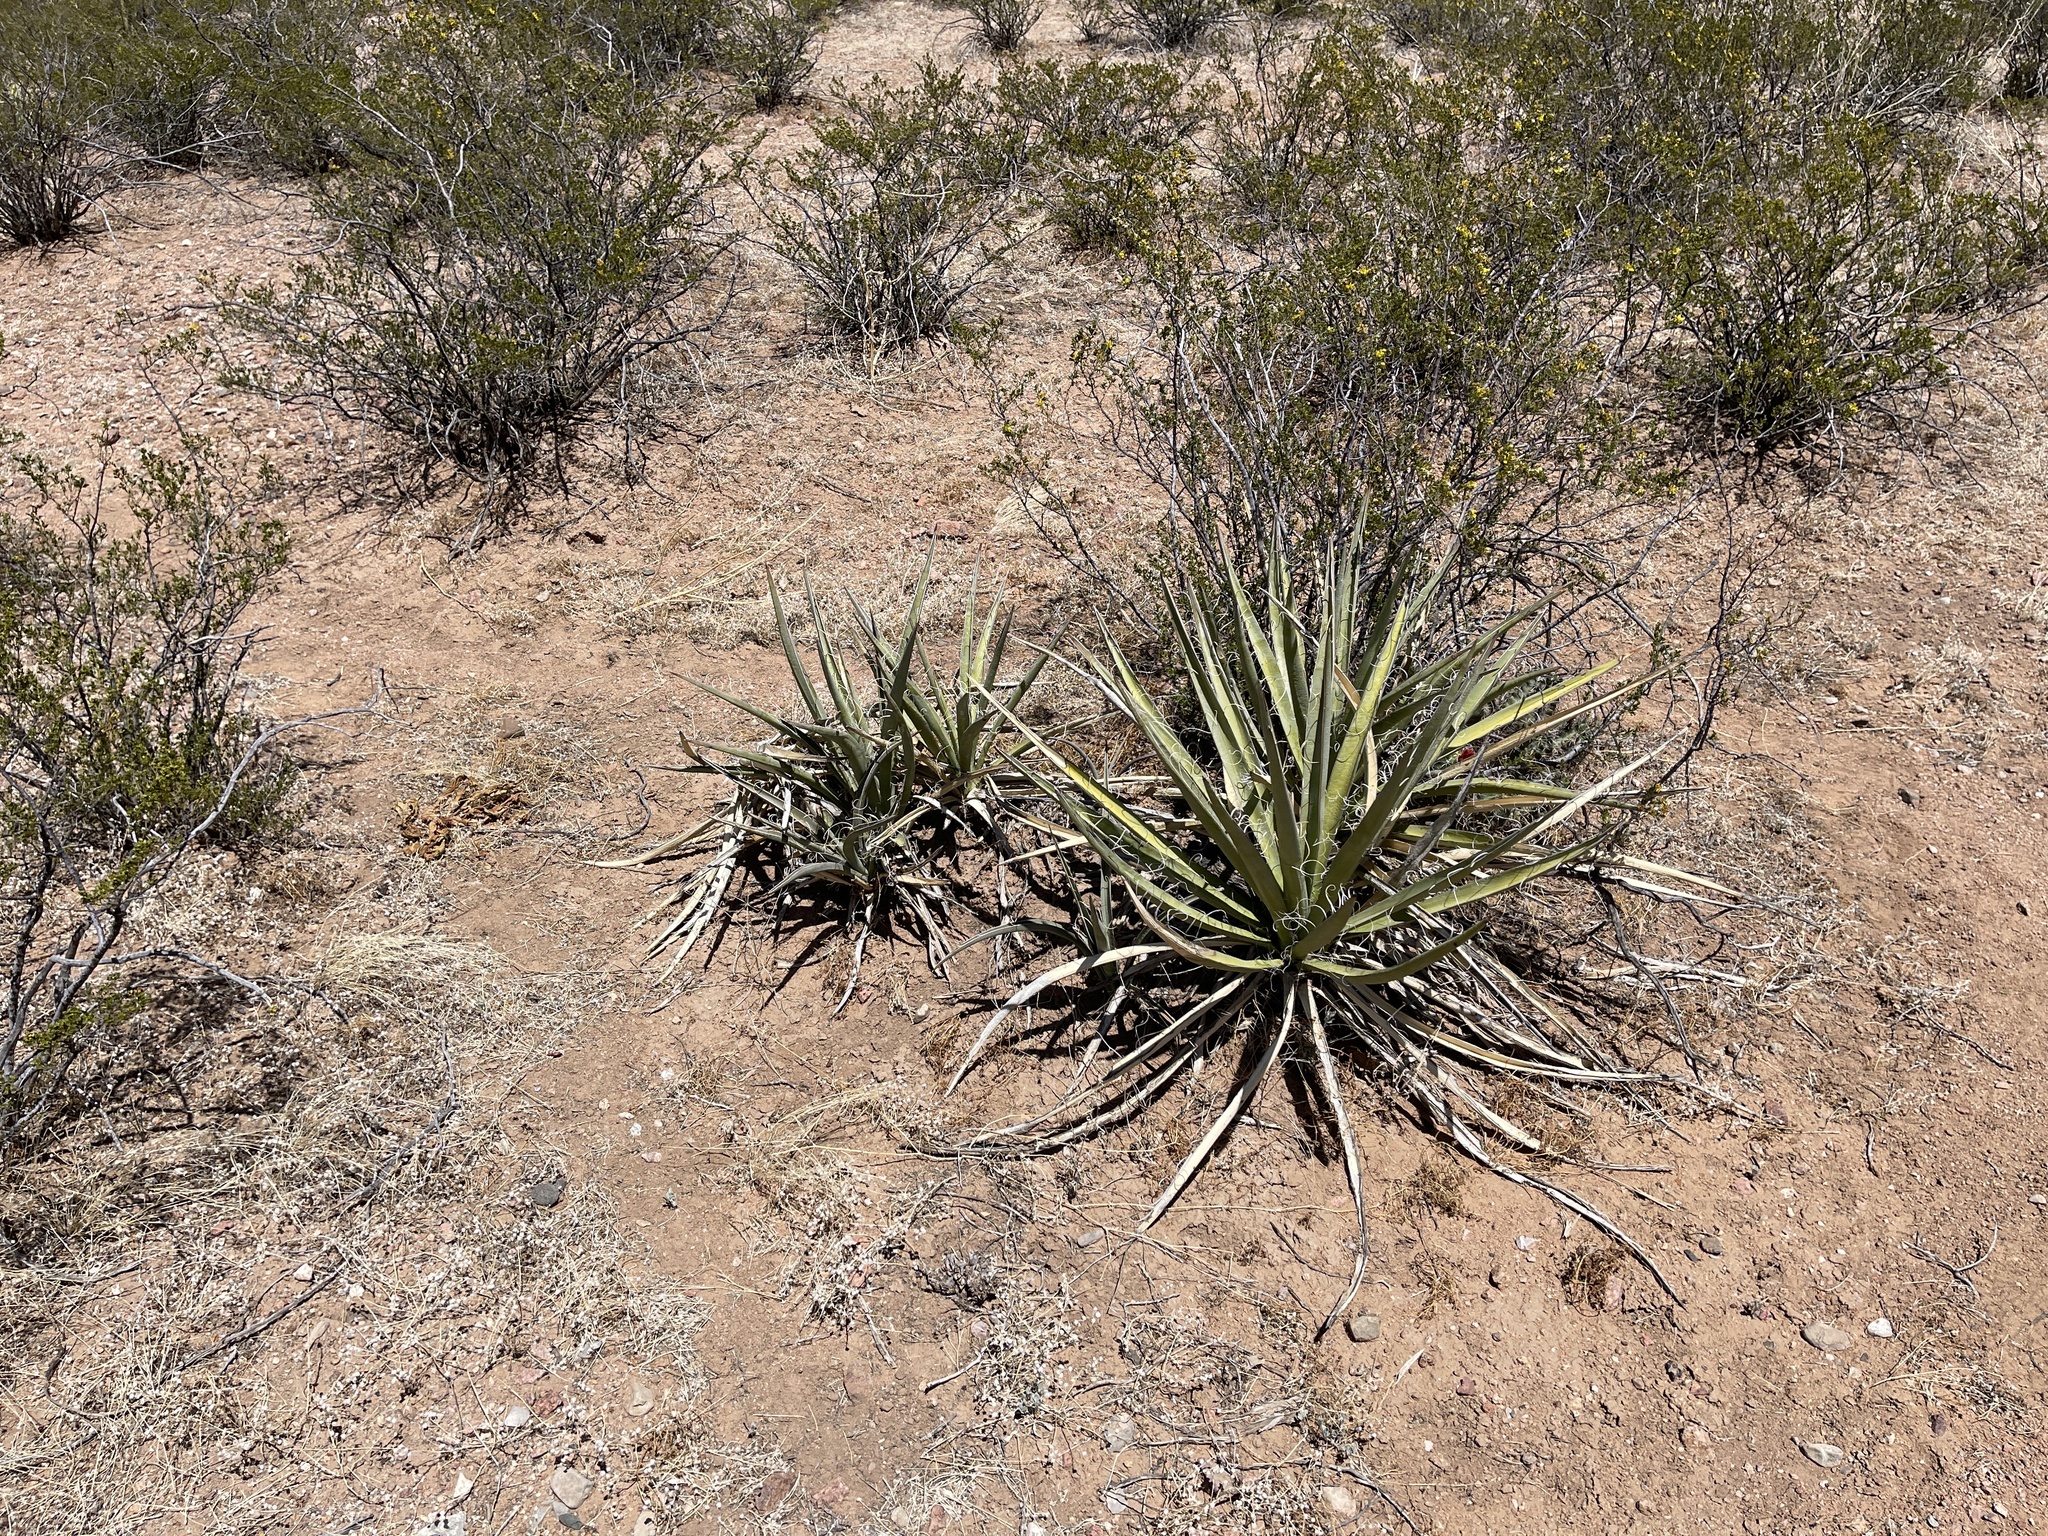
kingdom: Plantae
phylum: Tracheophyta
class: Liliopsida
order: Asparagales
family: Asparagaceae
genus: Yucca
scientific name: Yucca baccata
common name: Banana yucca
